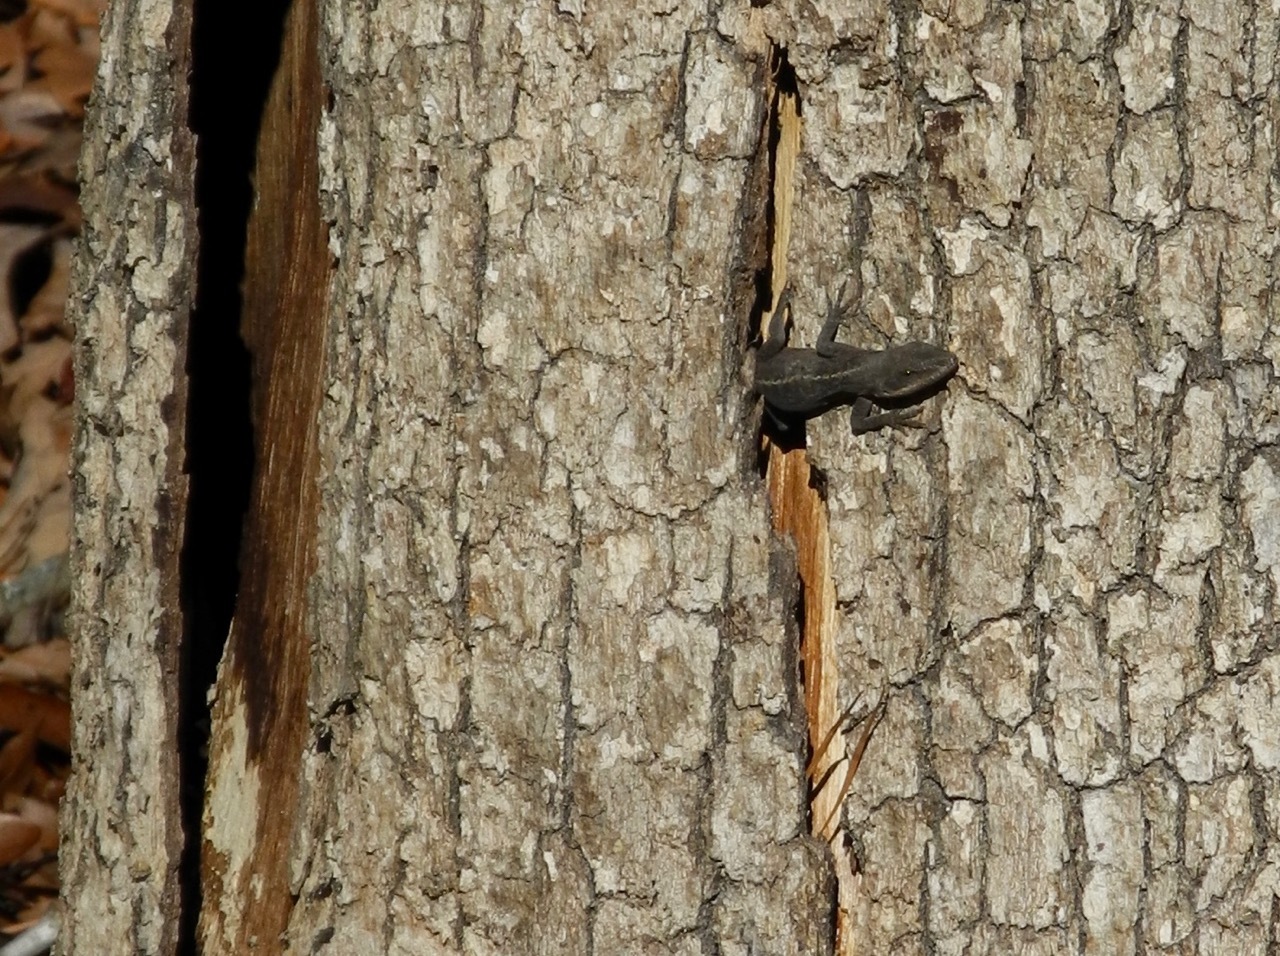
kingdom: Animalia
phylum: Chordata
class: Squamata
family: Dactyloidae
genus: Anolis
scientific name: Anolis carolinensis
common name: Green anole
